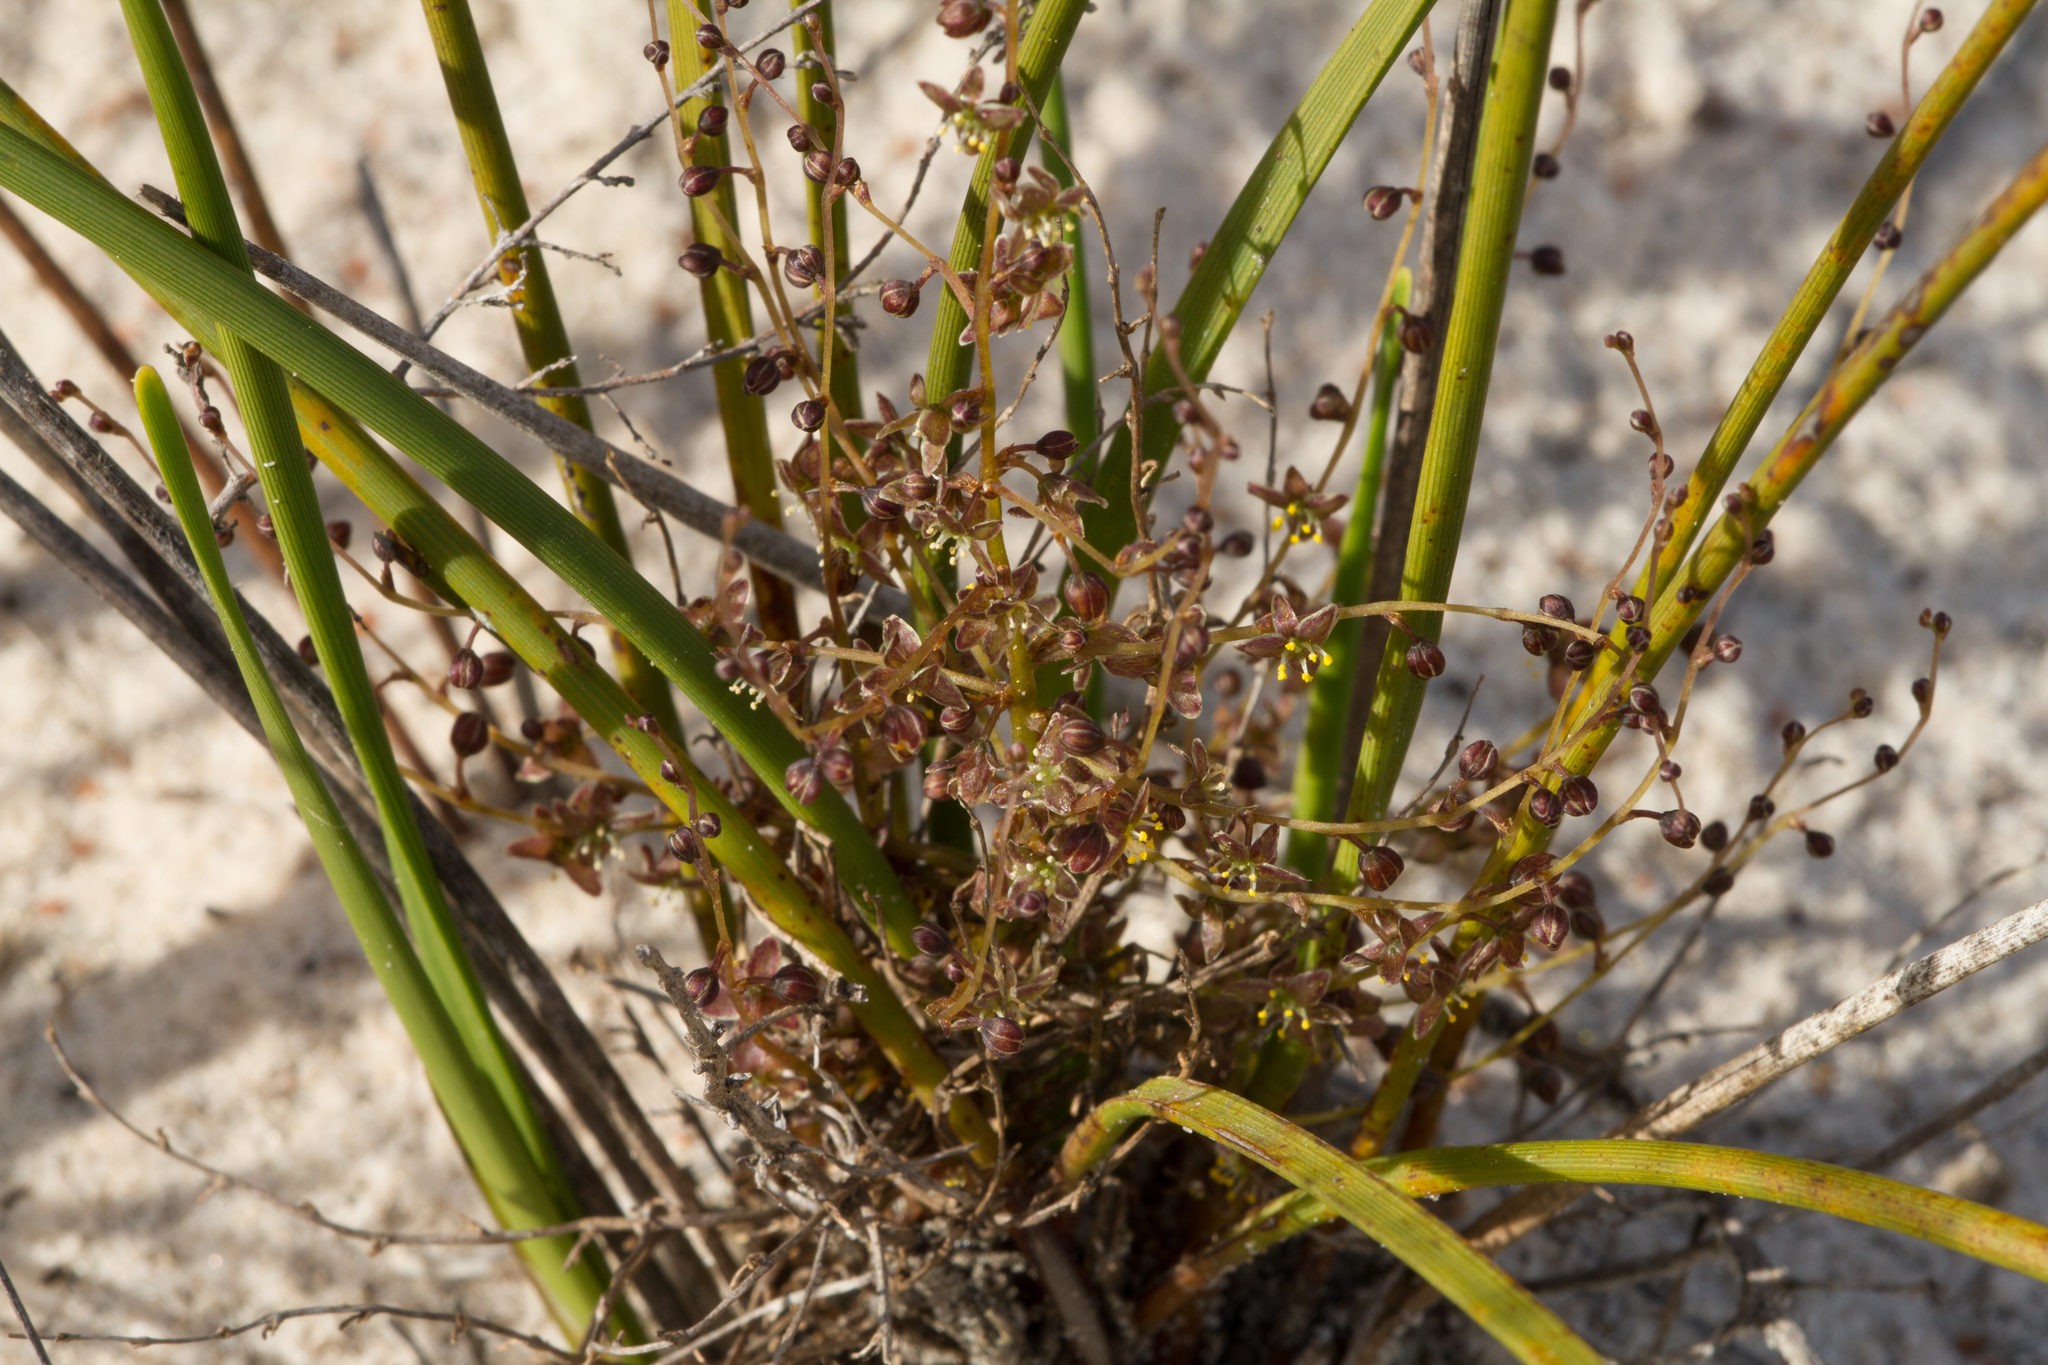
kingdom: Plantae
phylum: Tracheophyta
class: Liliopsida
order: Asparagales
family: Asparagaceae
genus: Lomandra
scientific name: Lomandra micrantha
